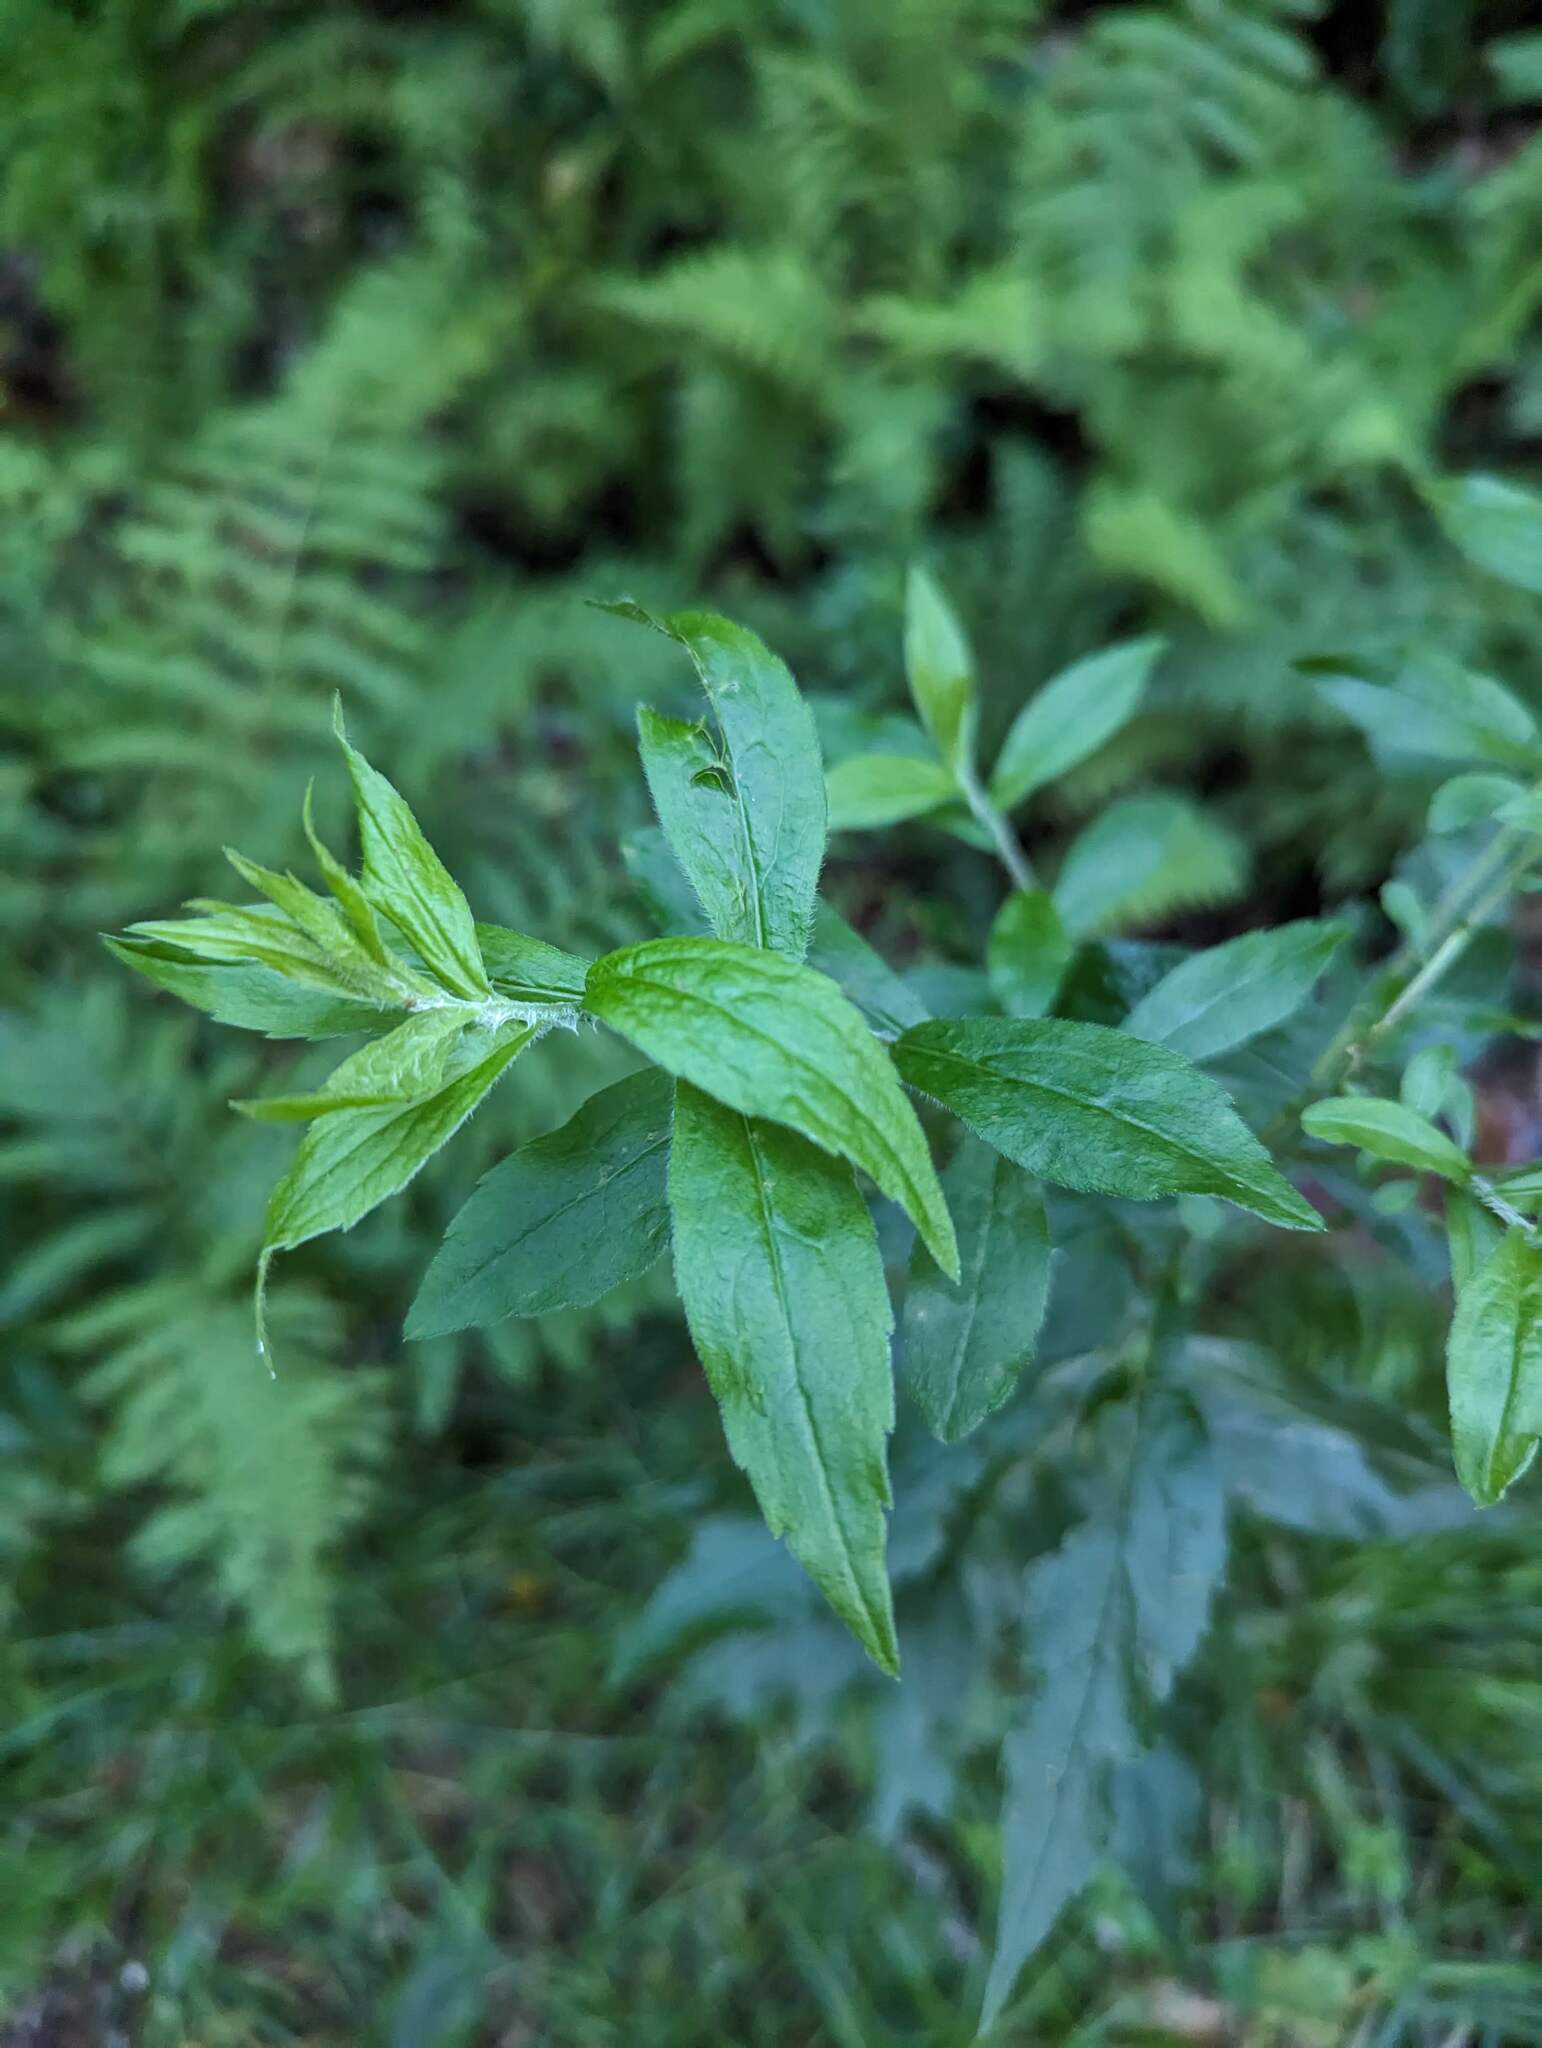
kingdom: Plantae
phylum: Tracheophyta
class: Magnoliopsida
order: Asterales
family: Asteraceae
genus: Solidago
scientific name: Solidago rugosa
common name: Rough-stemmed goldenrod
